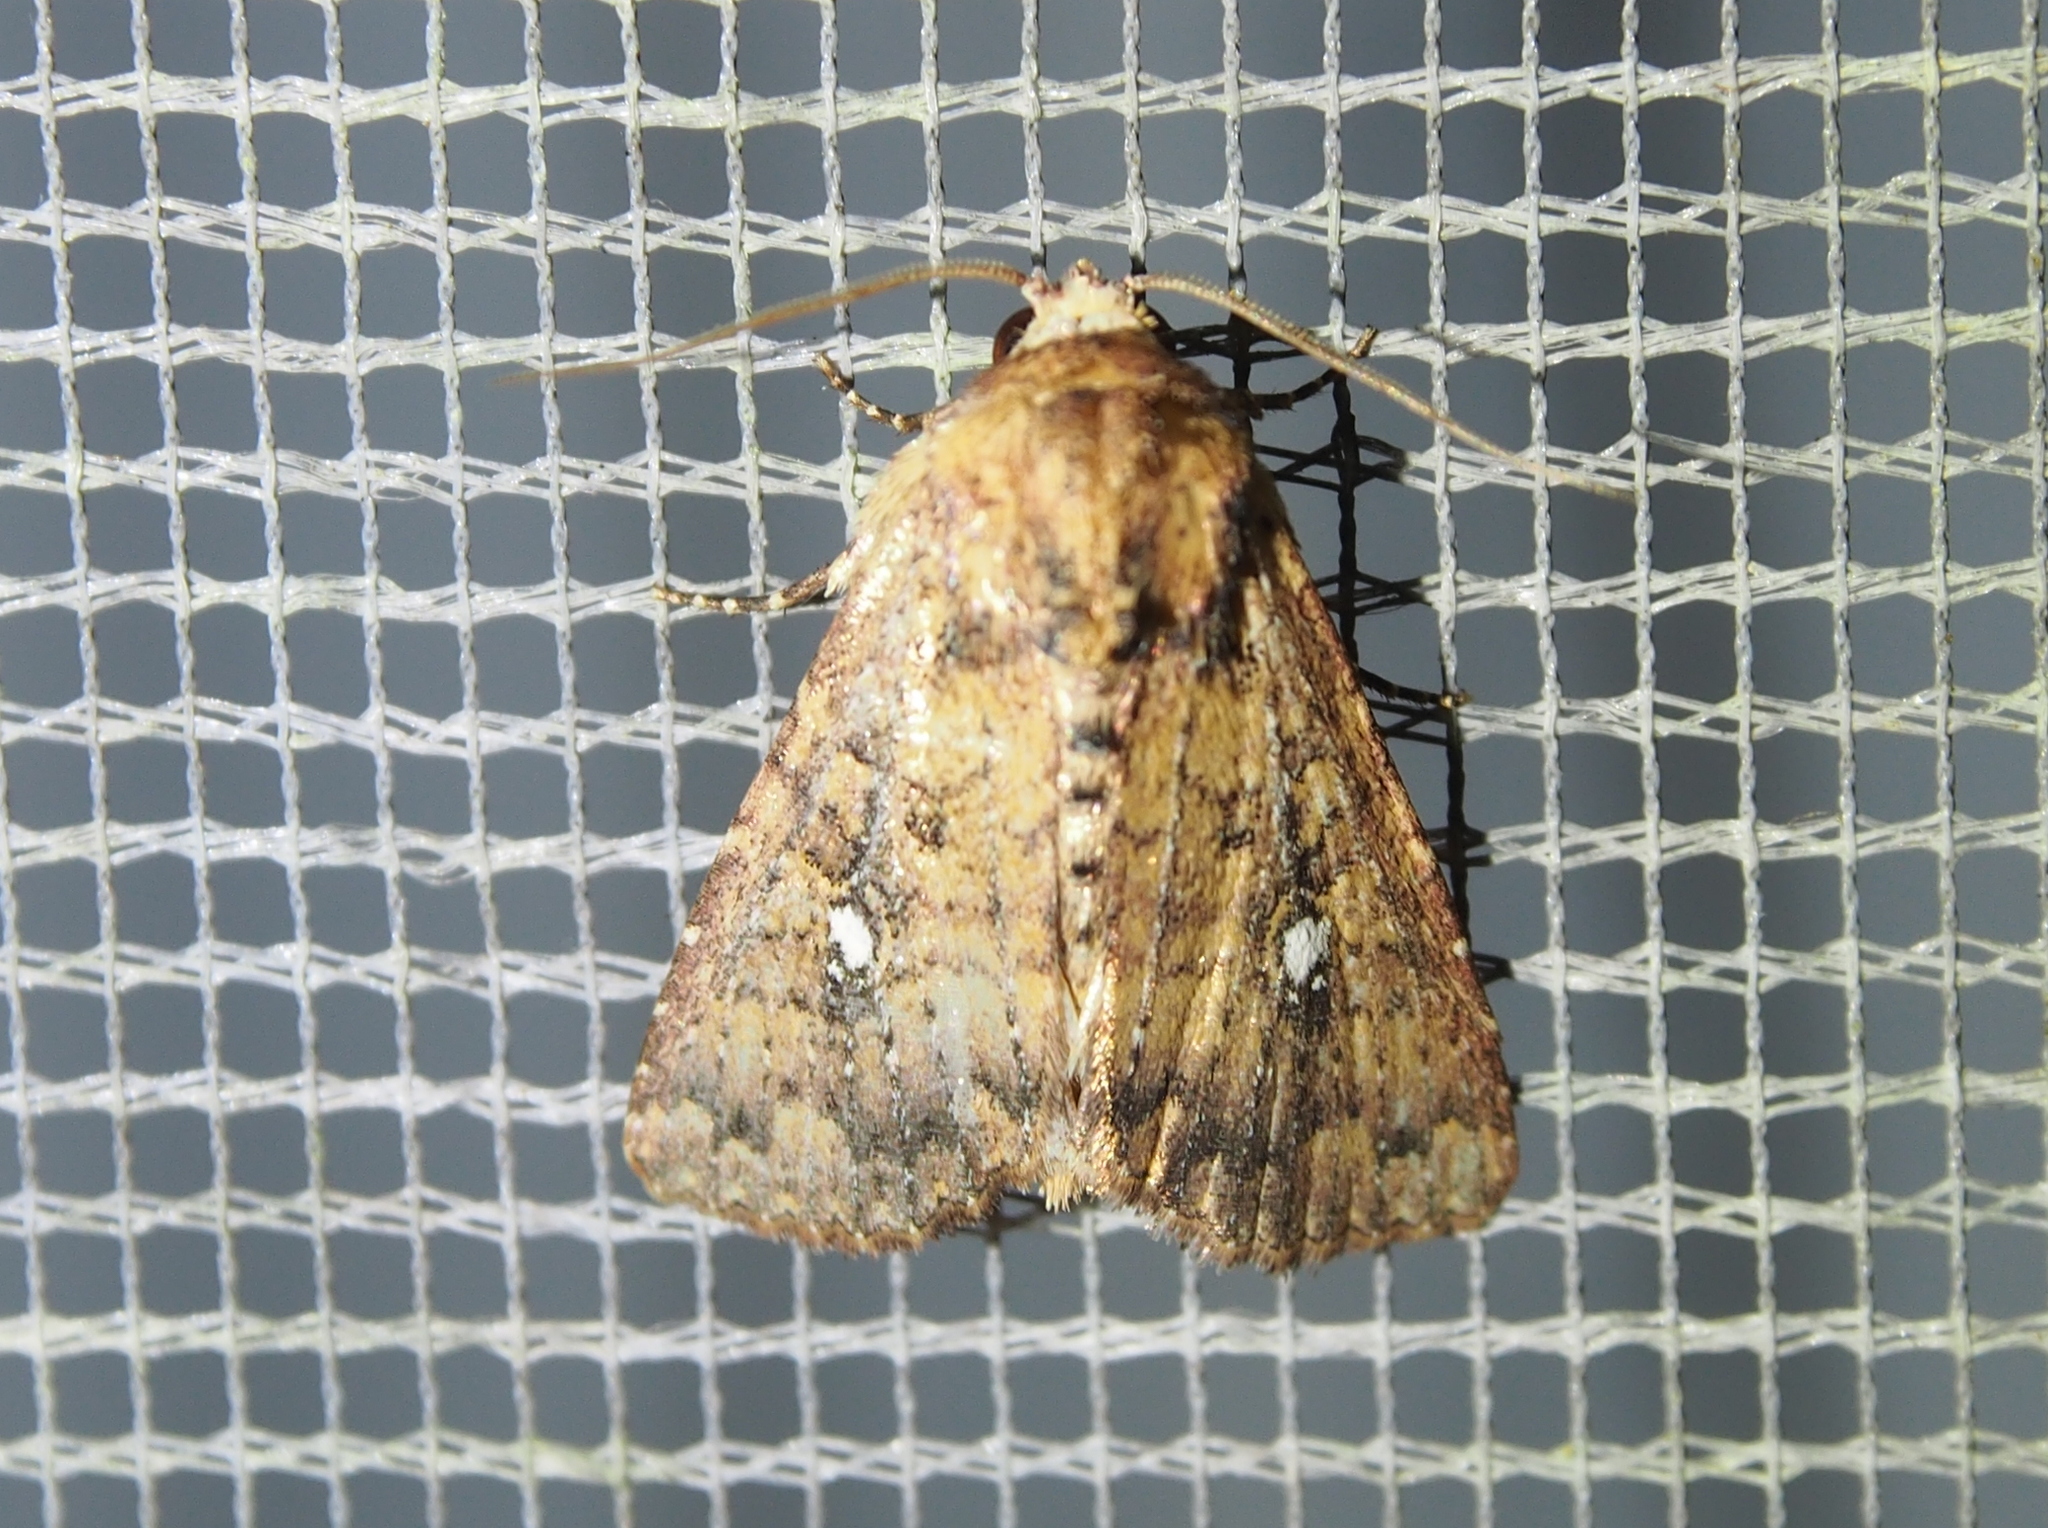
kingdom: Animalia
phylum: Arthropoda
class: Insecta
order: Lepidoptera
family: Noctuidae
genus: Condica
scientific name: Condica mobilis
